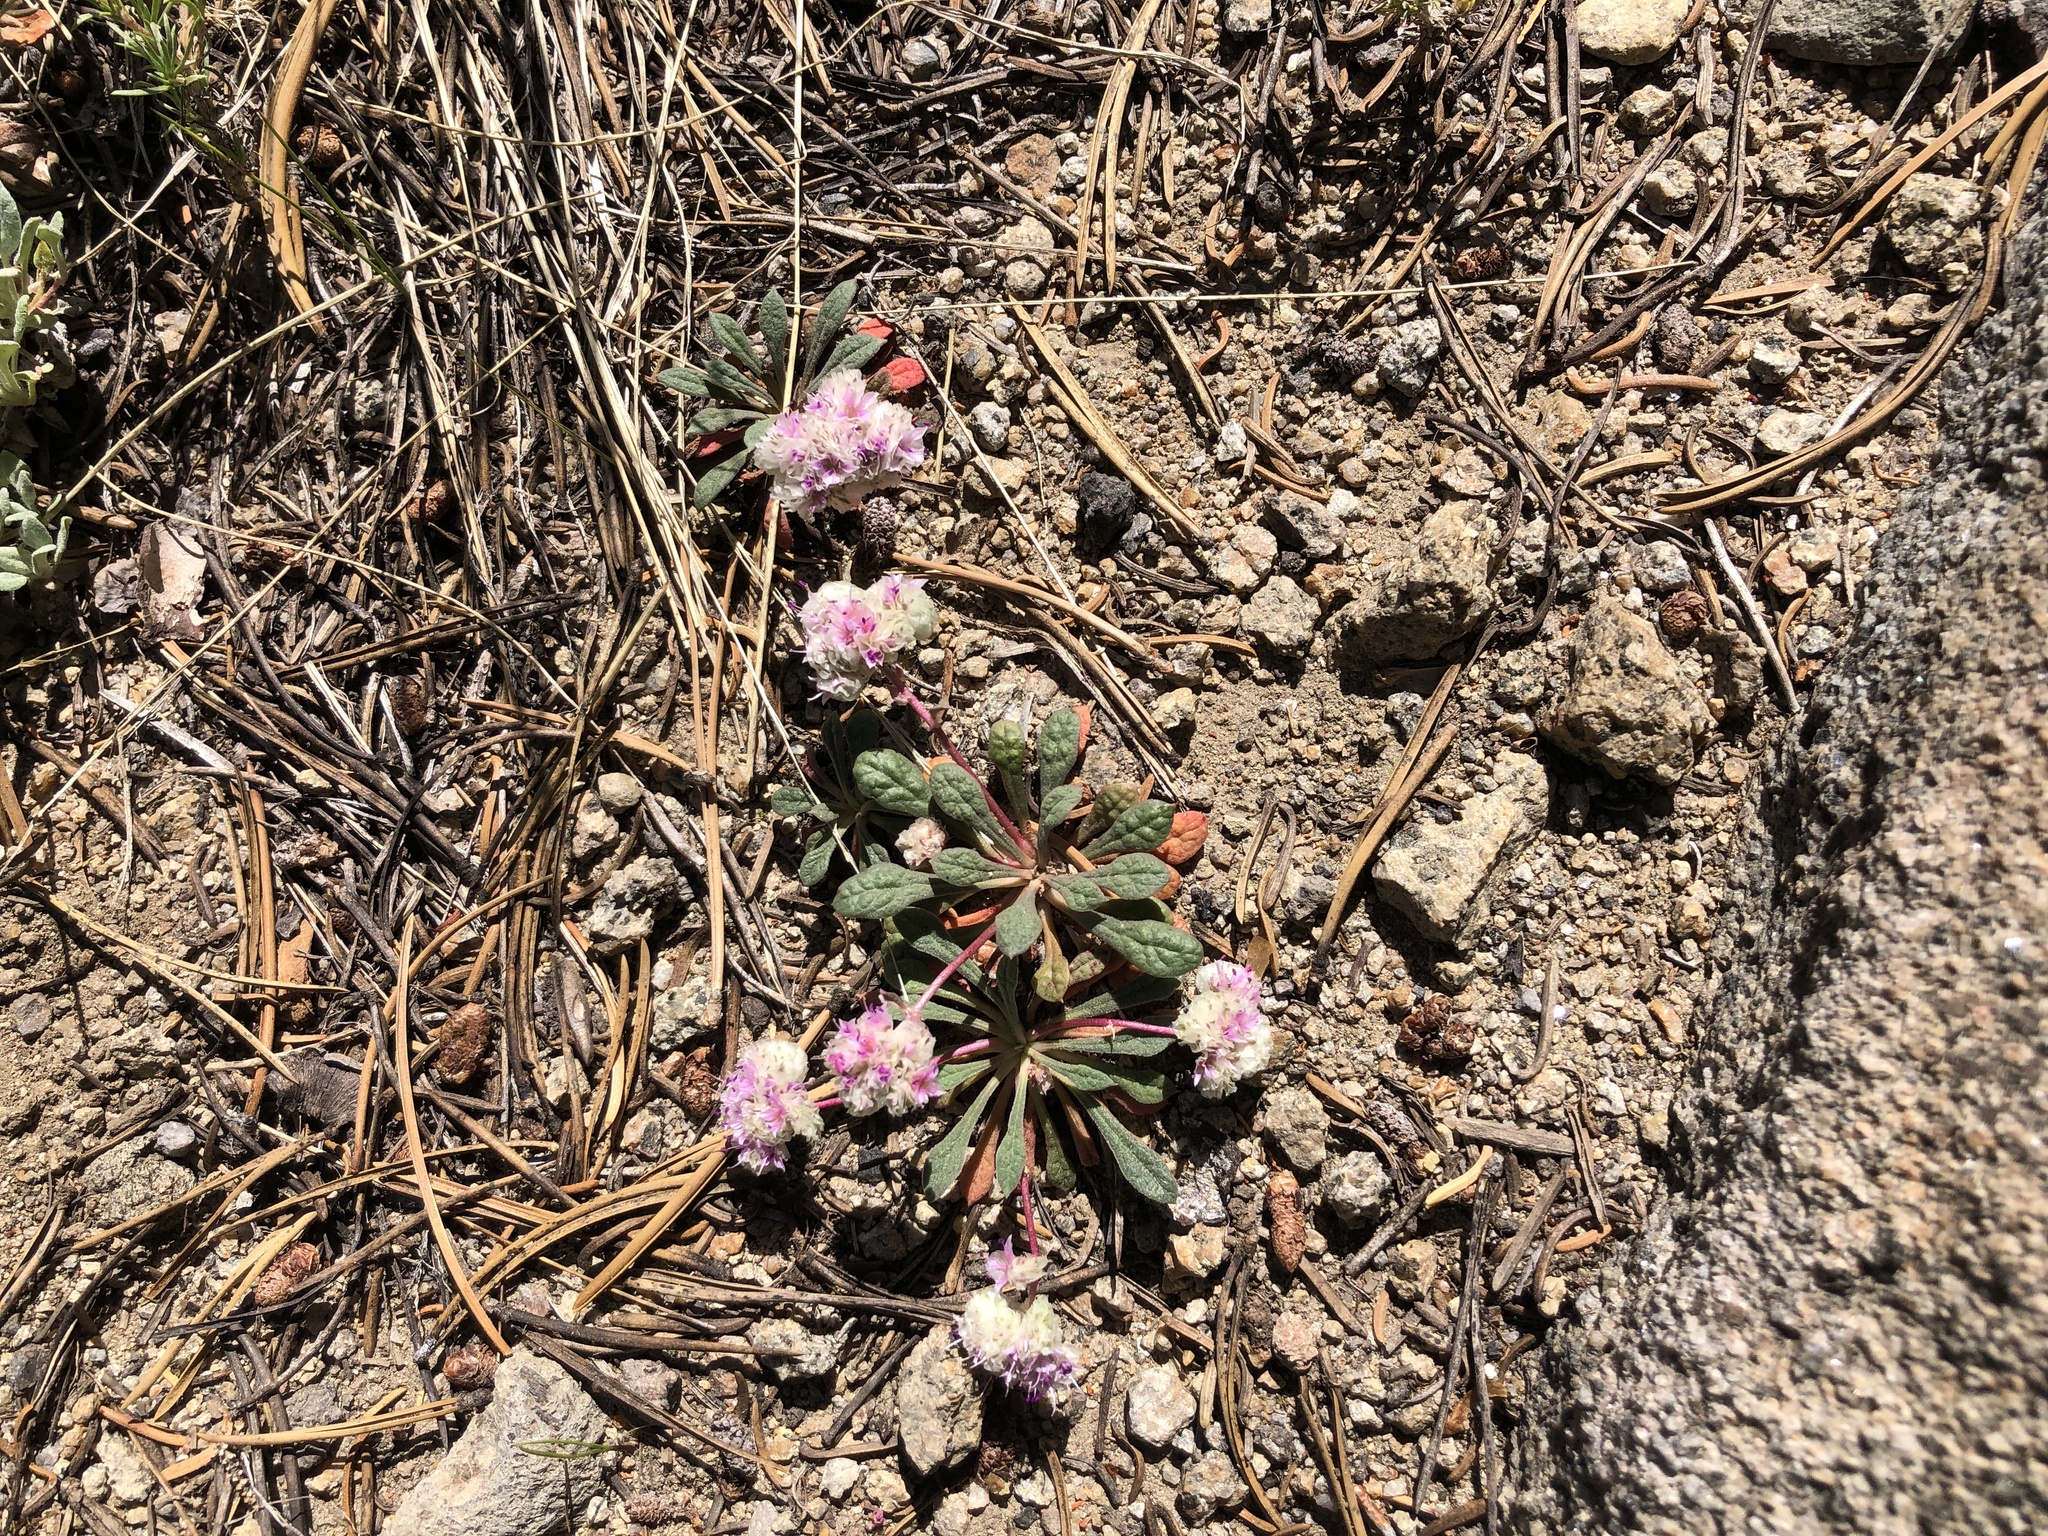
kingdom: Plantae
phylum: Tracheophyta
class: Magnoliopsida
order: Caryophyllales
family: Montiaceae
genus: Calyptridium
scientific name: Calyptridium monospermum
